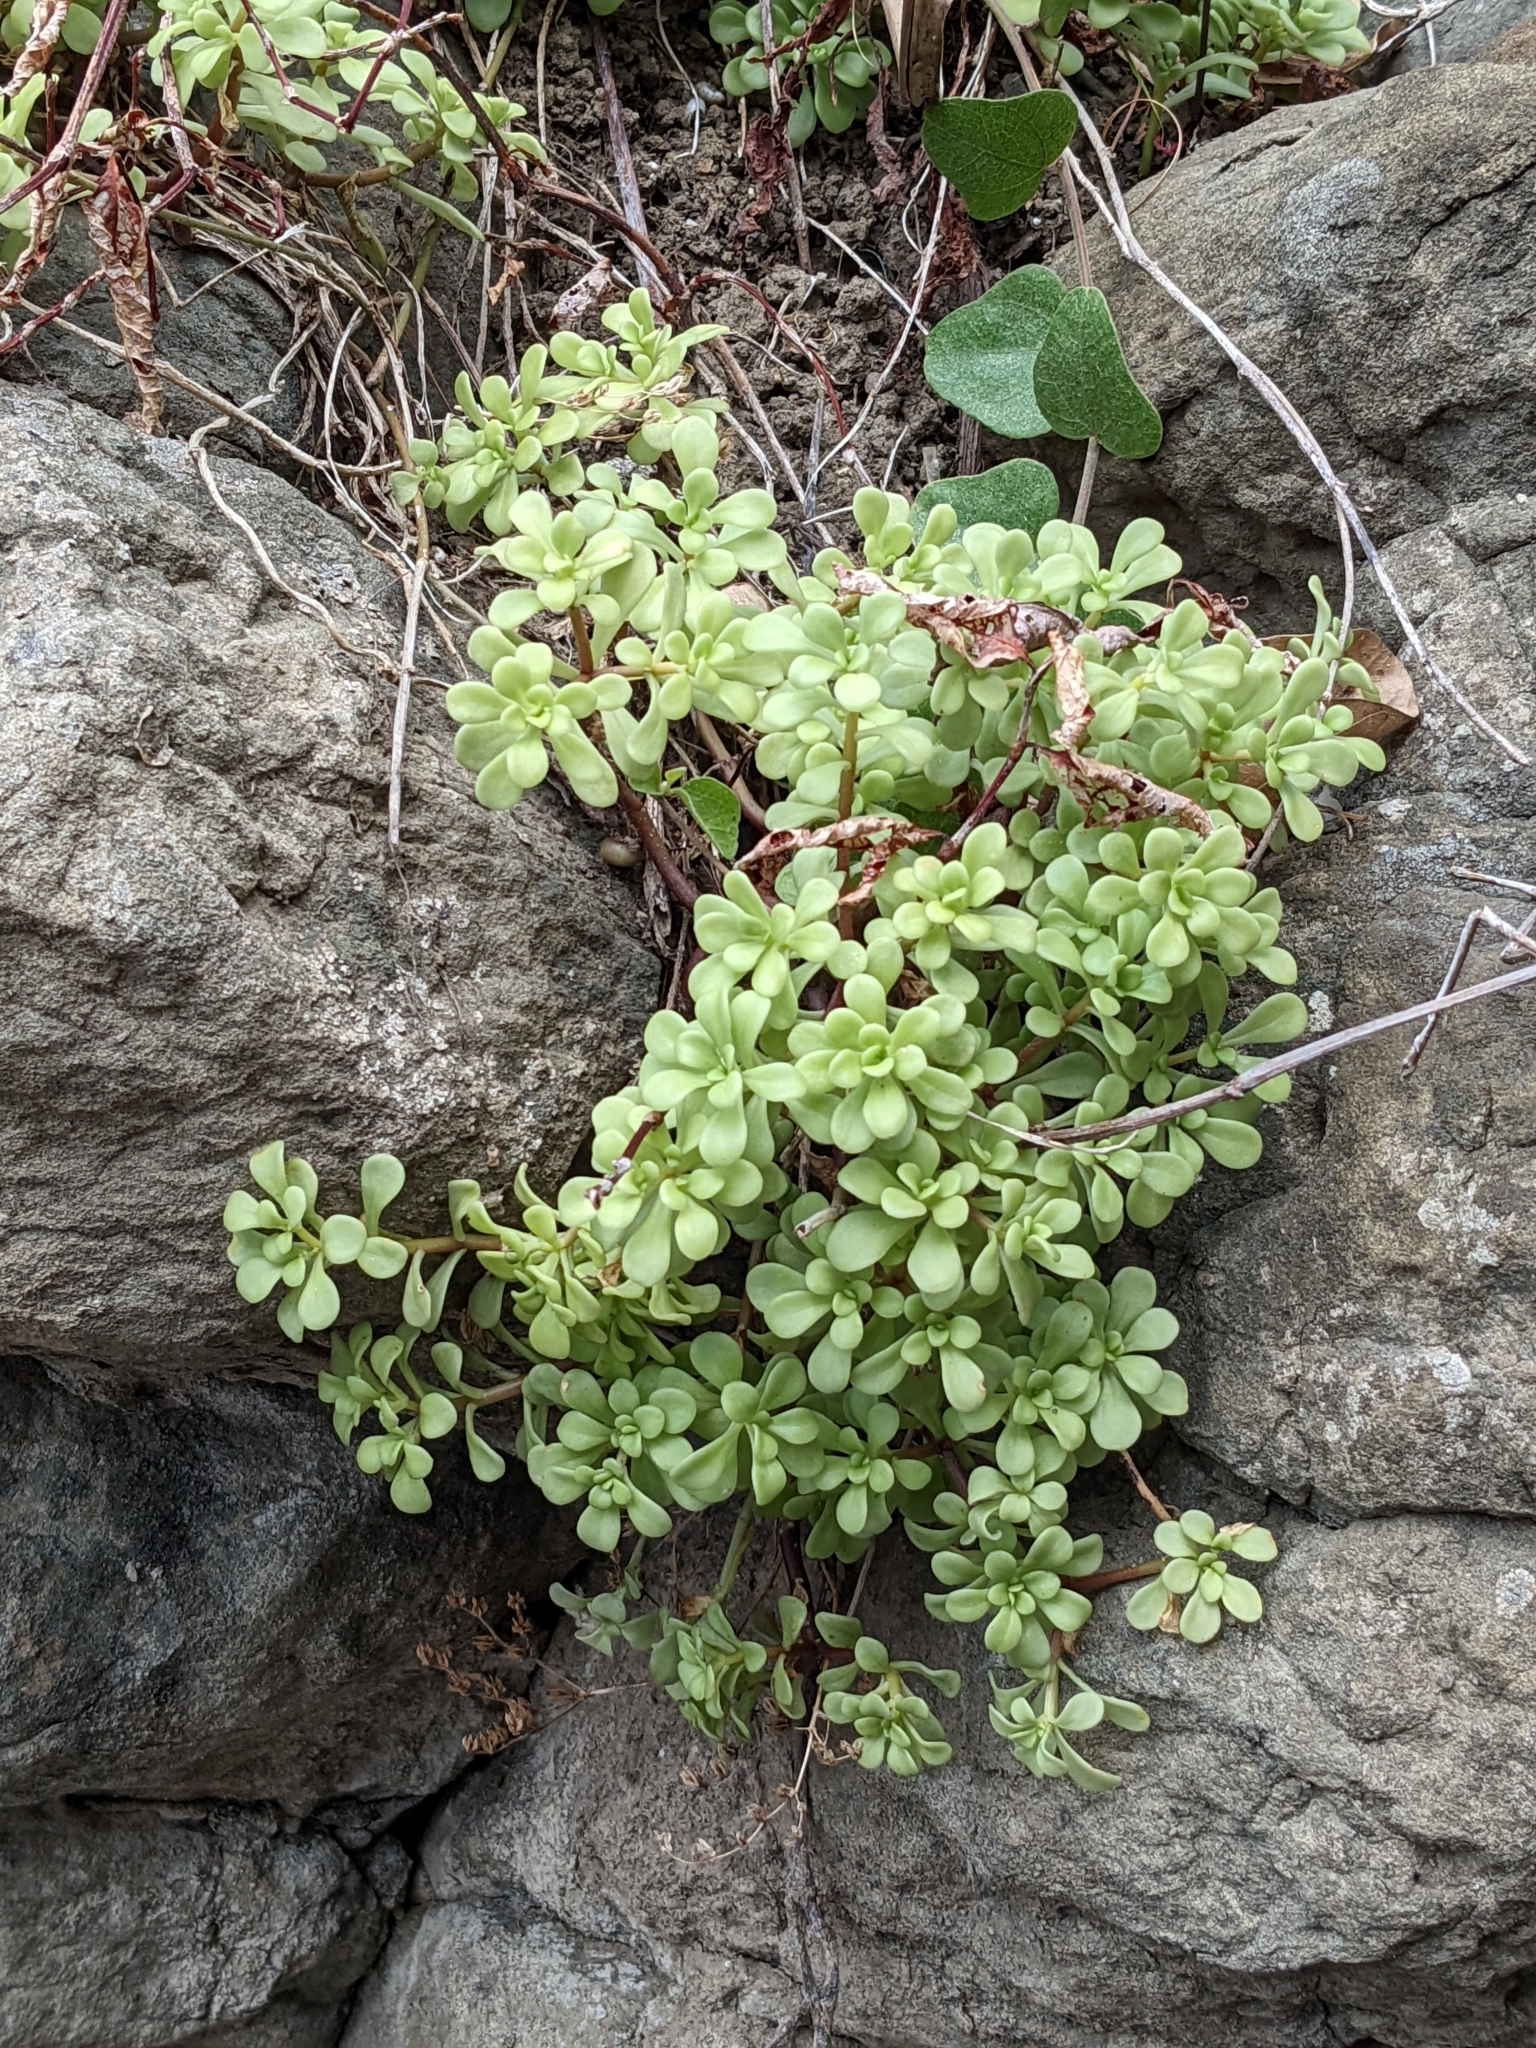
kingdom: Plantae
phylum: Tracheophyta
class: Magnoliopsida
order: Saxifragales
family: Crassulaceae
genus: Sedum
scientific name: Sedum formosanum
